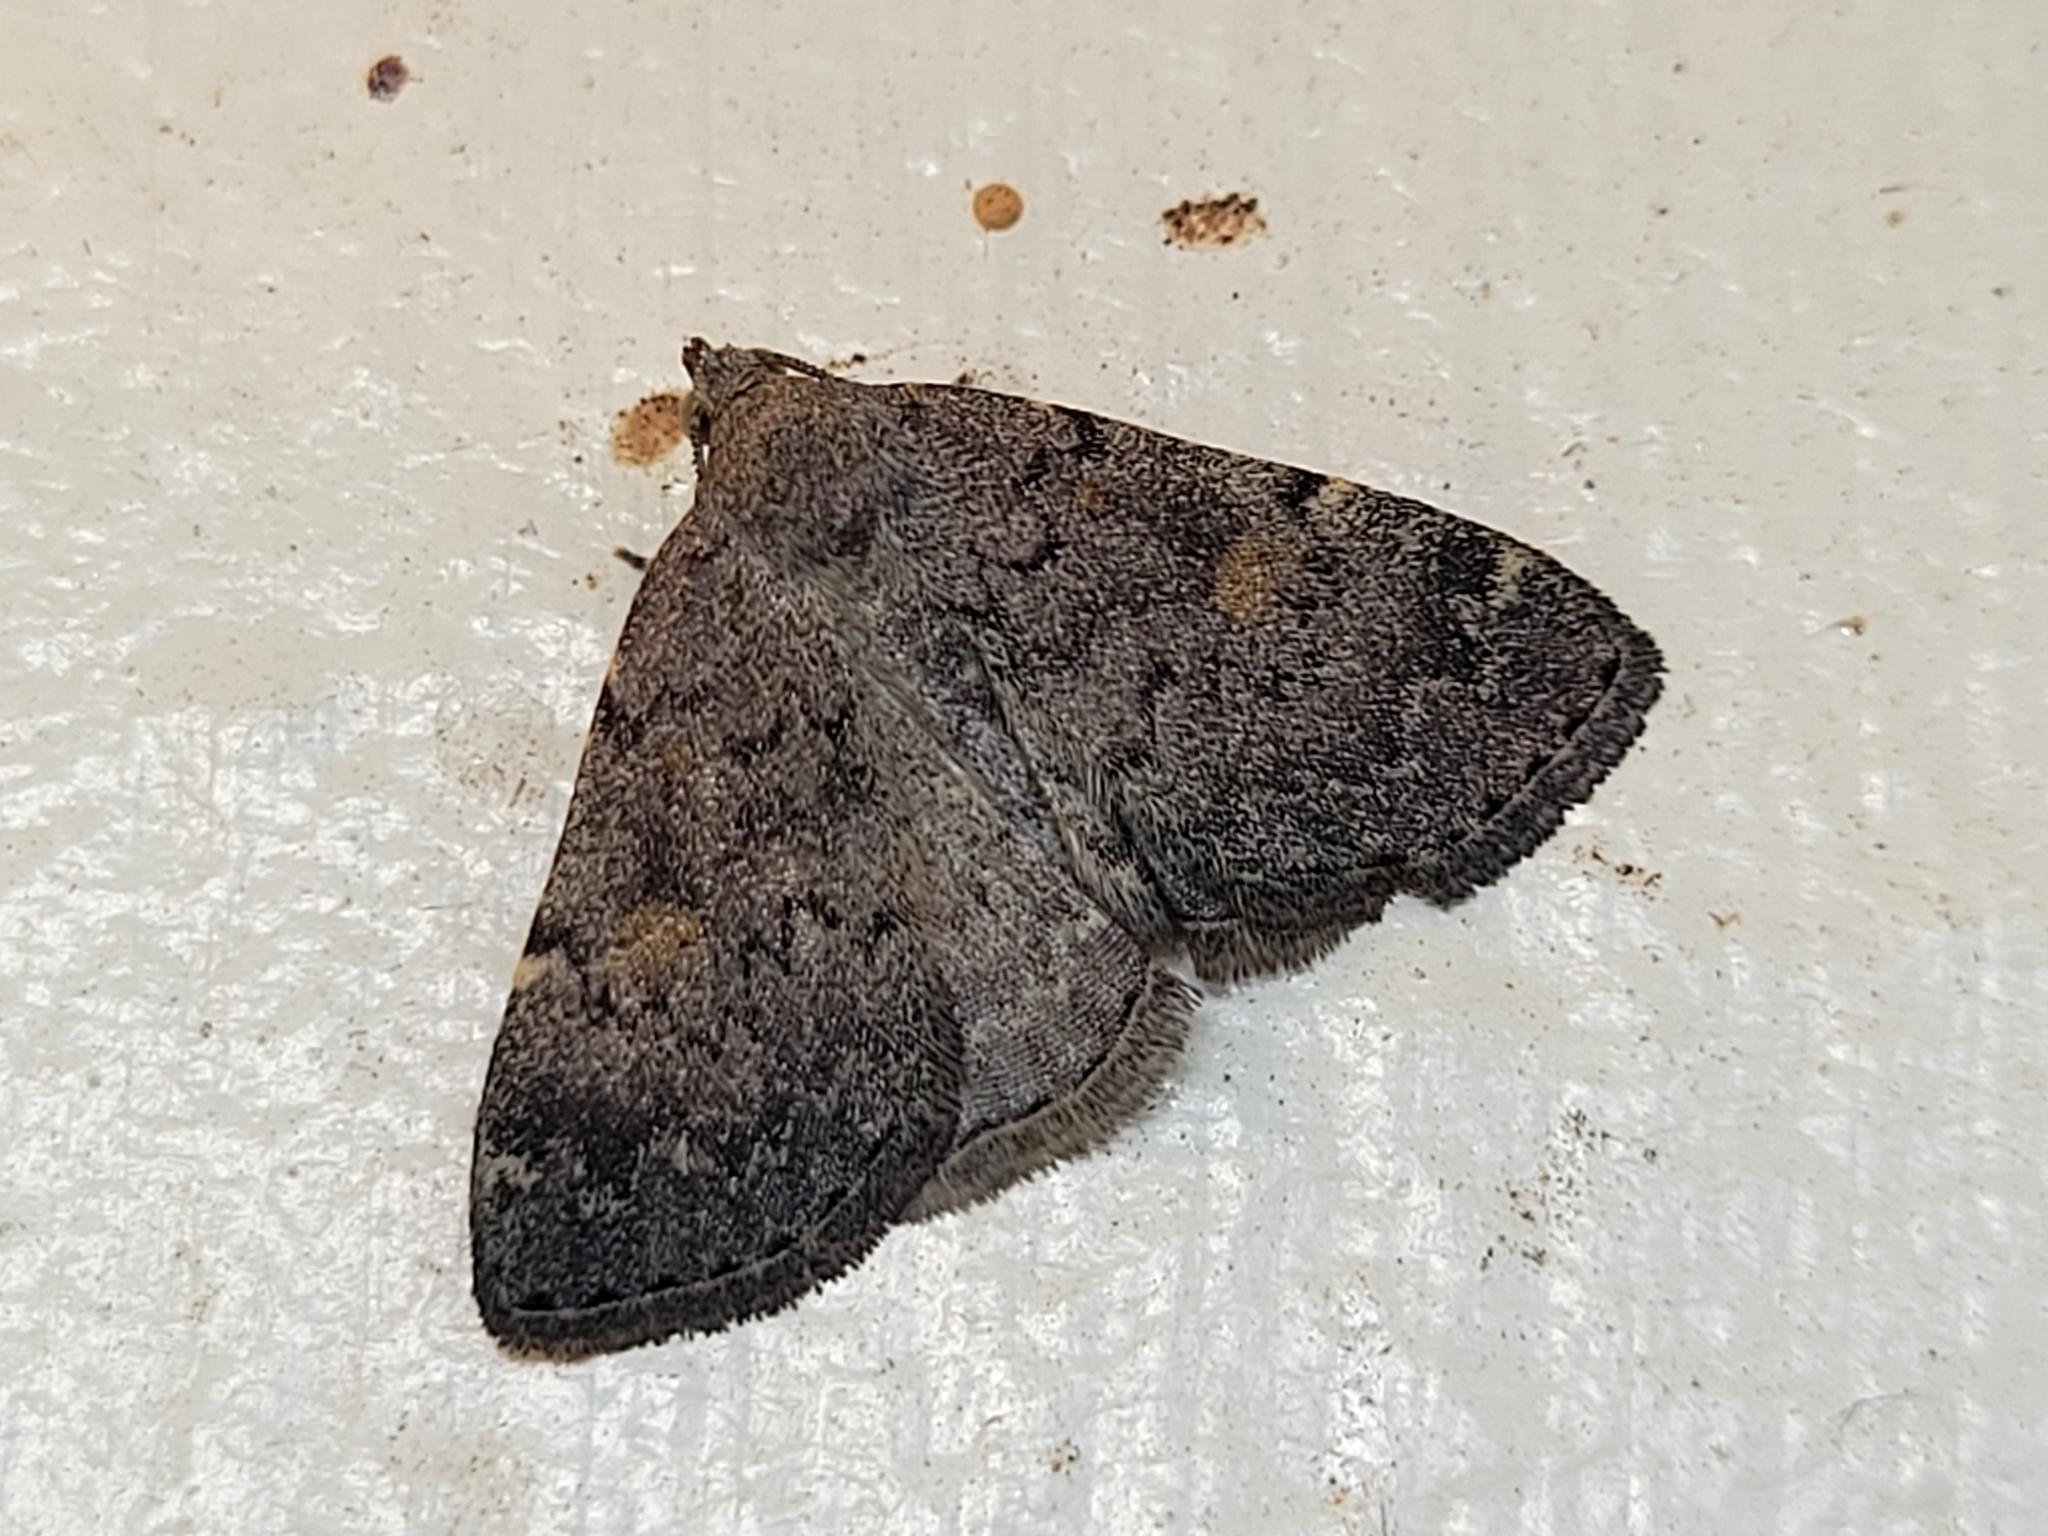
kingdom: Animalia
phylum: Arthropoda
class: Insecta
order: Lepidoptera
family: Erebidae
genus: Idia
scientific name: Idia aemula
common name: Common idia moth
